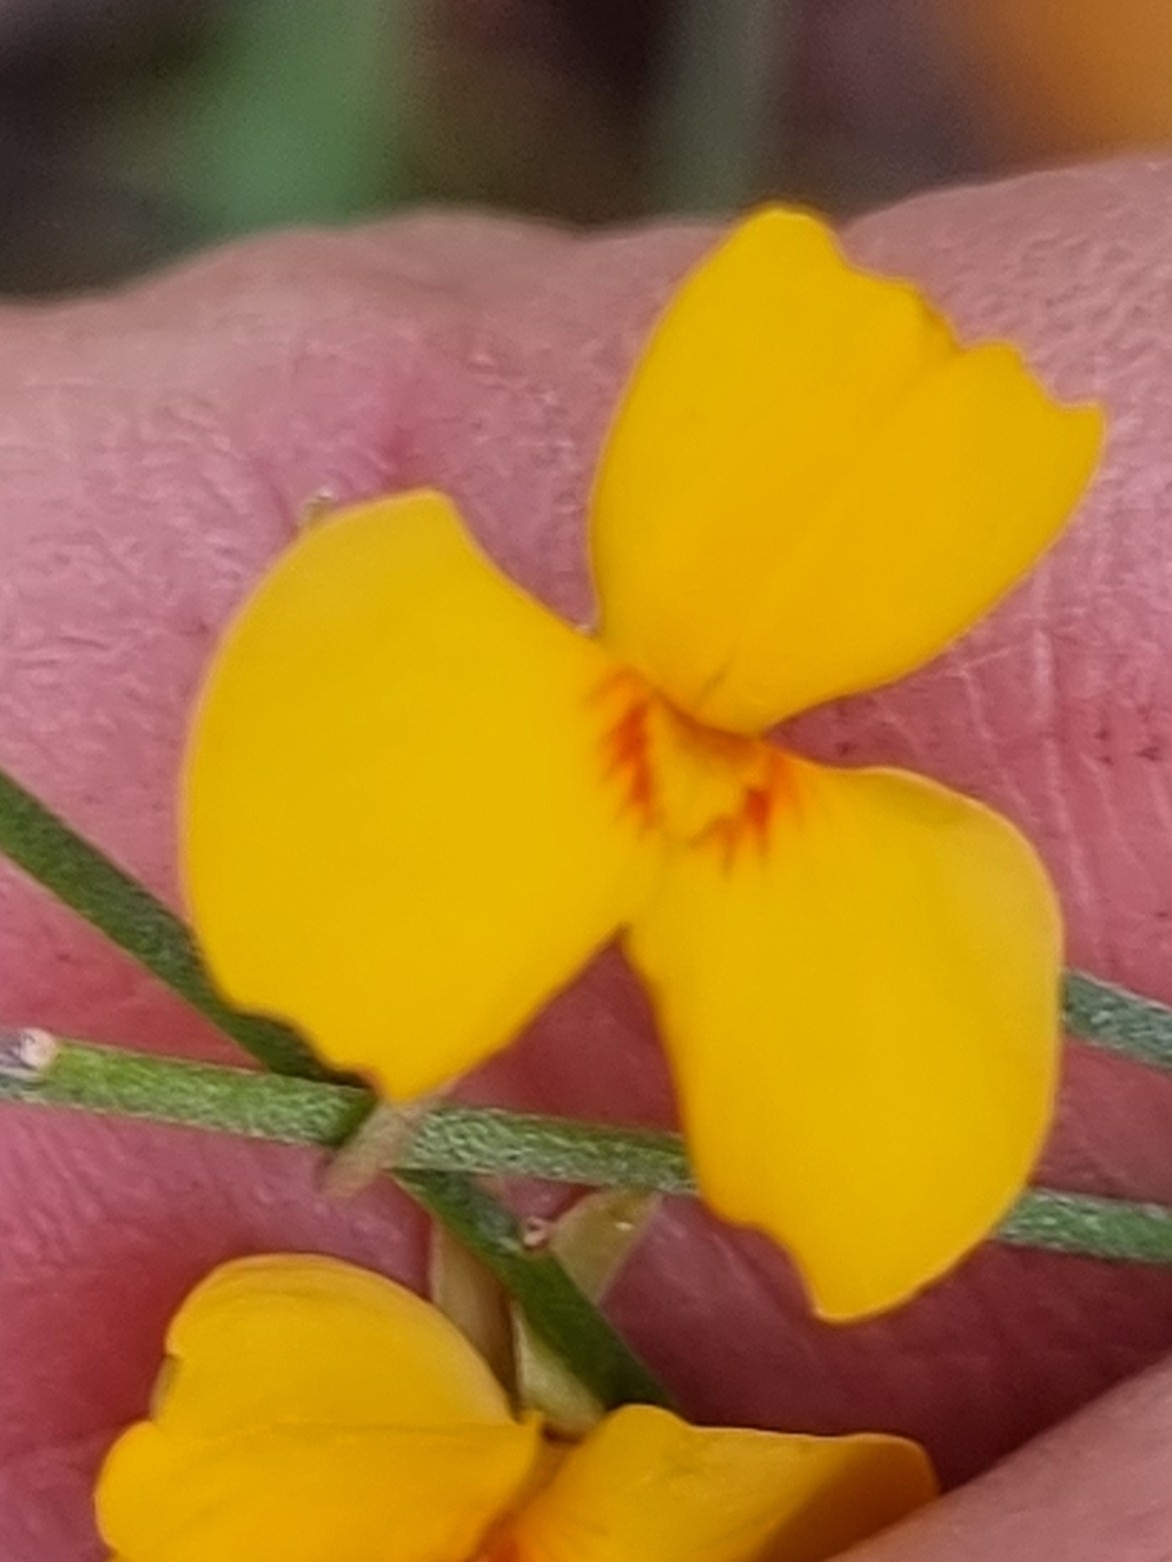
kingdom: Plantae
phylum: Tracheophyta
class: Magnoliopsida
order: Fabales
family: Fabaceae
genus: Jacksonia
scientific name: Jacksonia scoparia
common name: Dogwood
